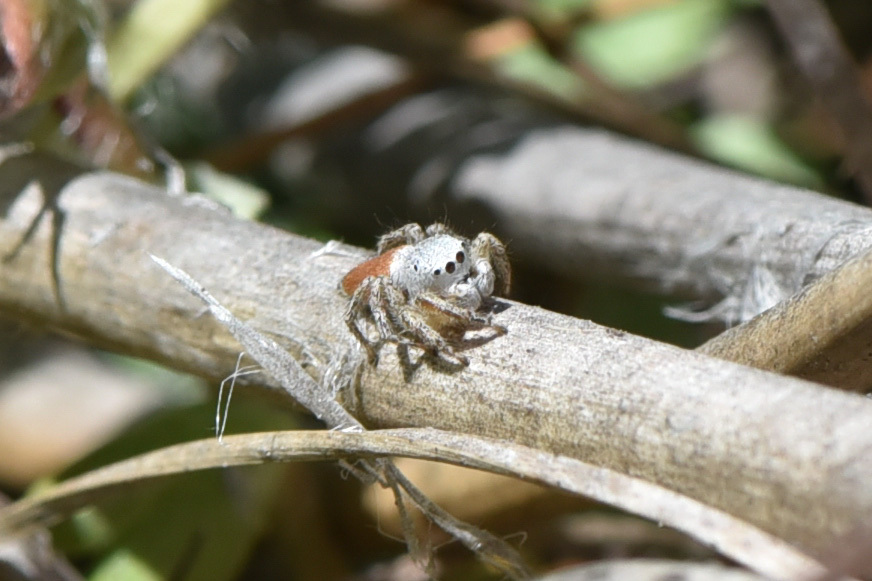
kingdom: Animalia
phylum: Arthropoda
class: Arachnida
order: Araneae
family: Salticidae
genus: Habronattus
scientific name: Habronattus decorus
